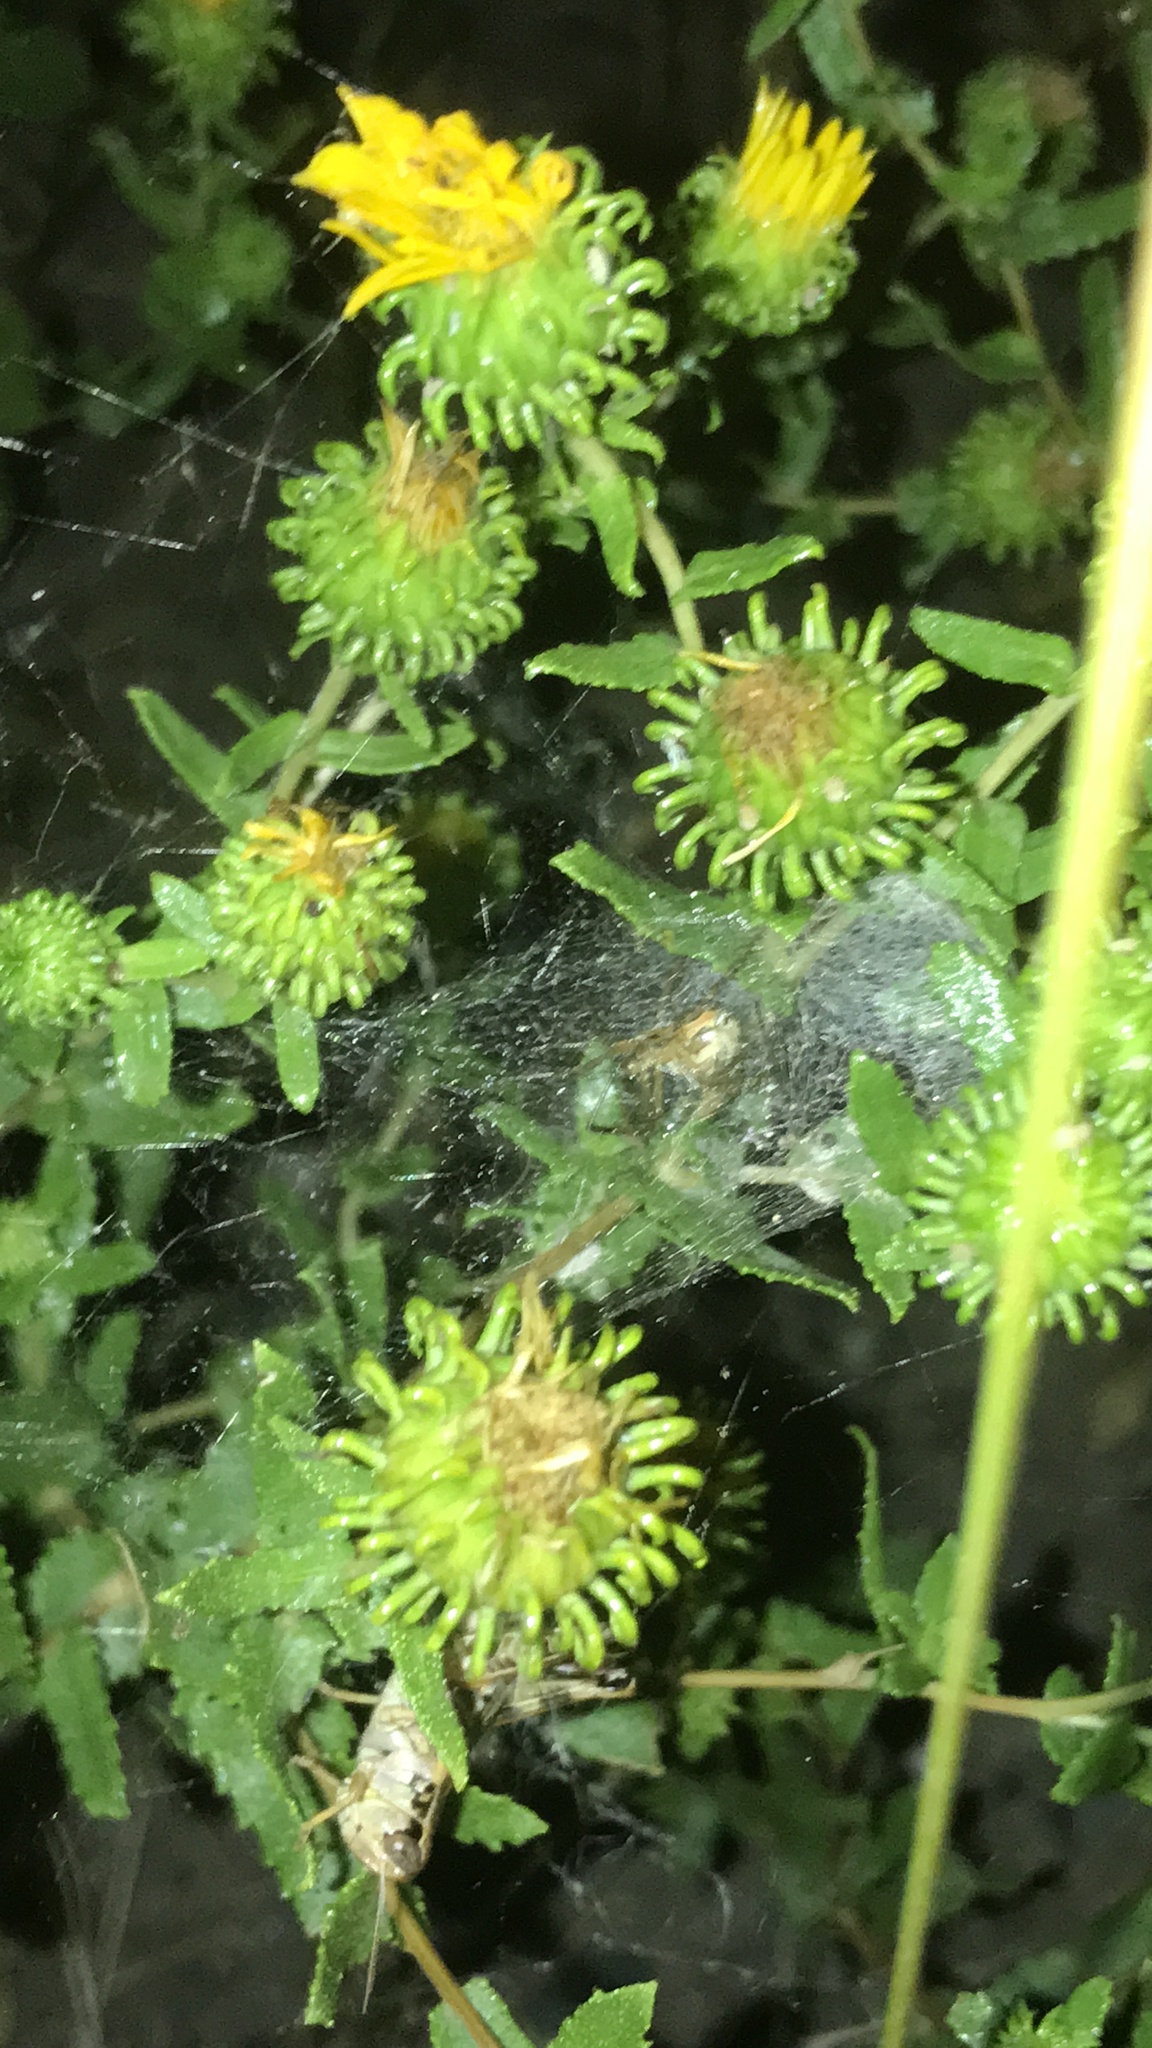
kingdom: Animalia
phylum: Arthropoda
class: Arachnida
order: Araneae
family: Theridiidae
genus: Latrodectus
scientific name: Latrodectus hesperus
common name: Western black widow
